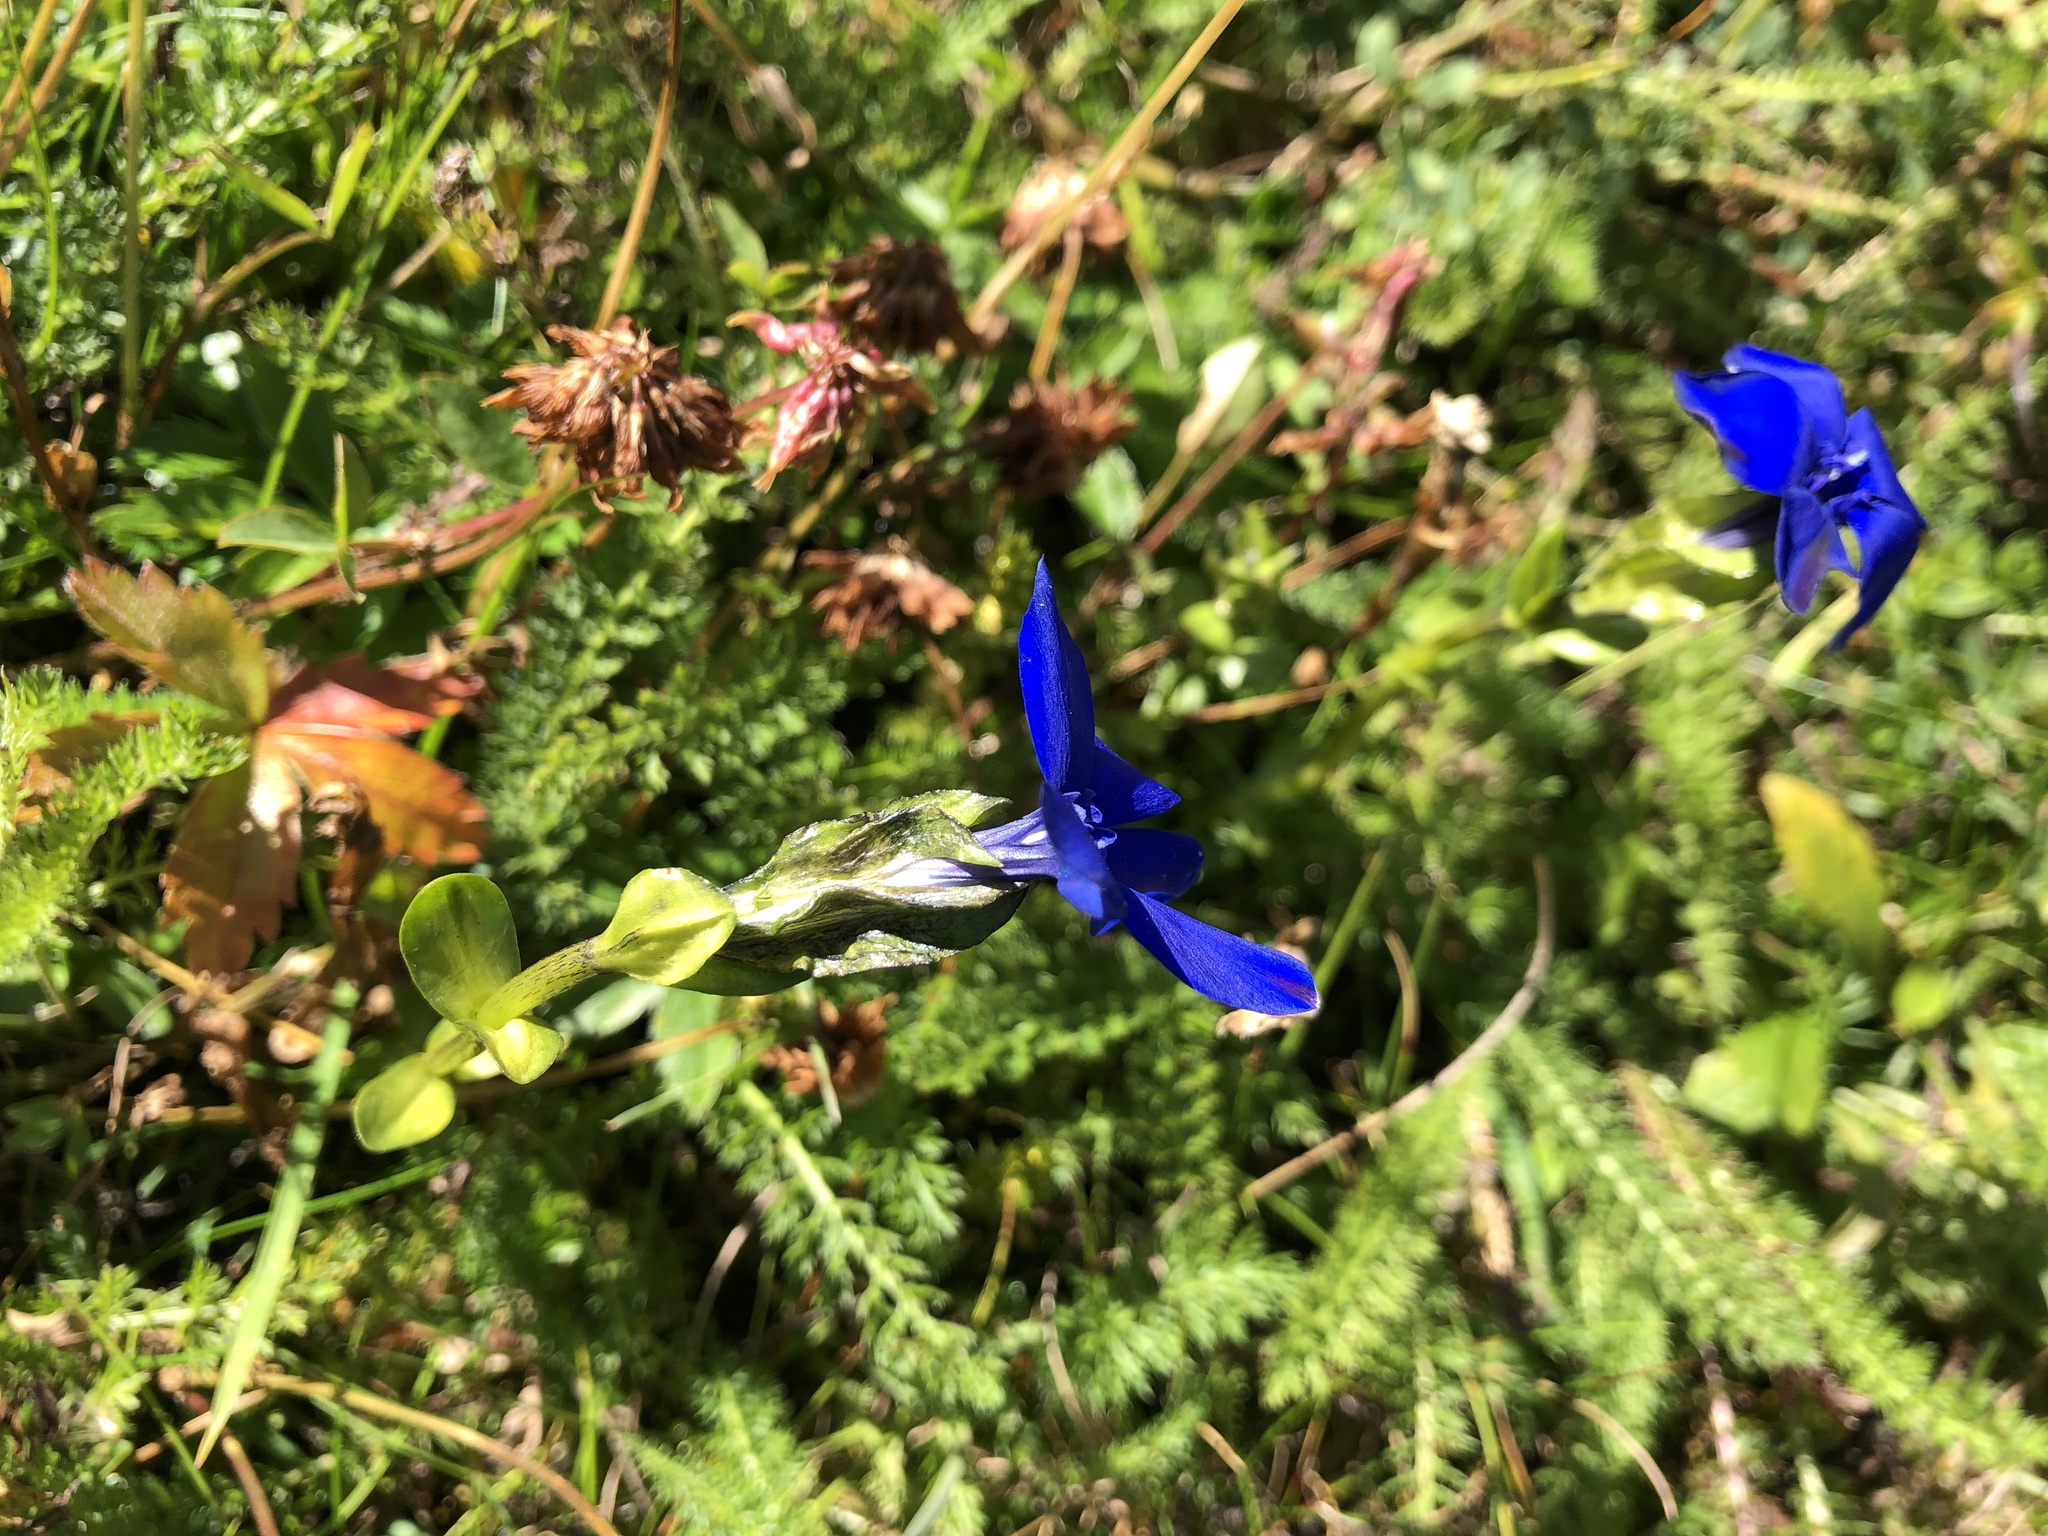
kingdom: Plantae
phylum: Tracheophyta
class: Magnoliopsida
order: Gentianales
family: Gentianaceae
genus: Gentiana
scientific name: Gentiana bavarica
